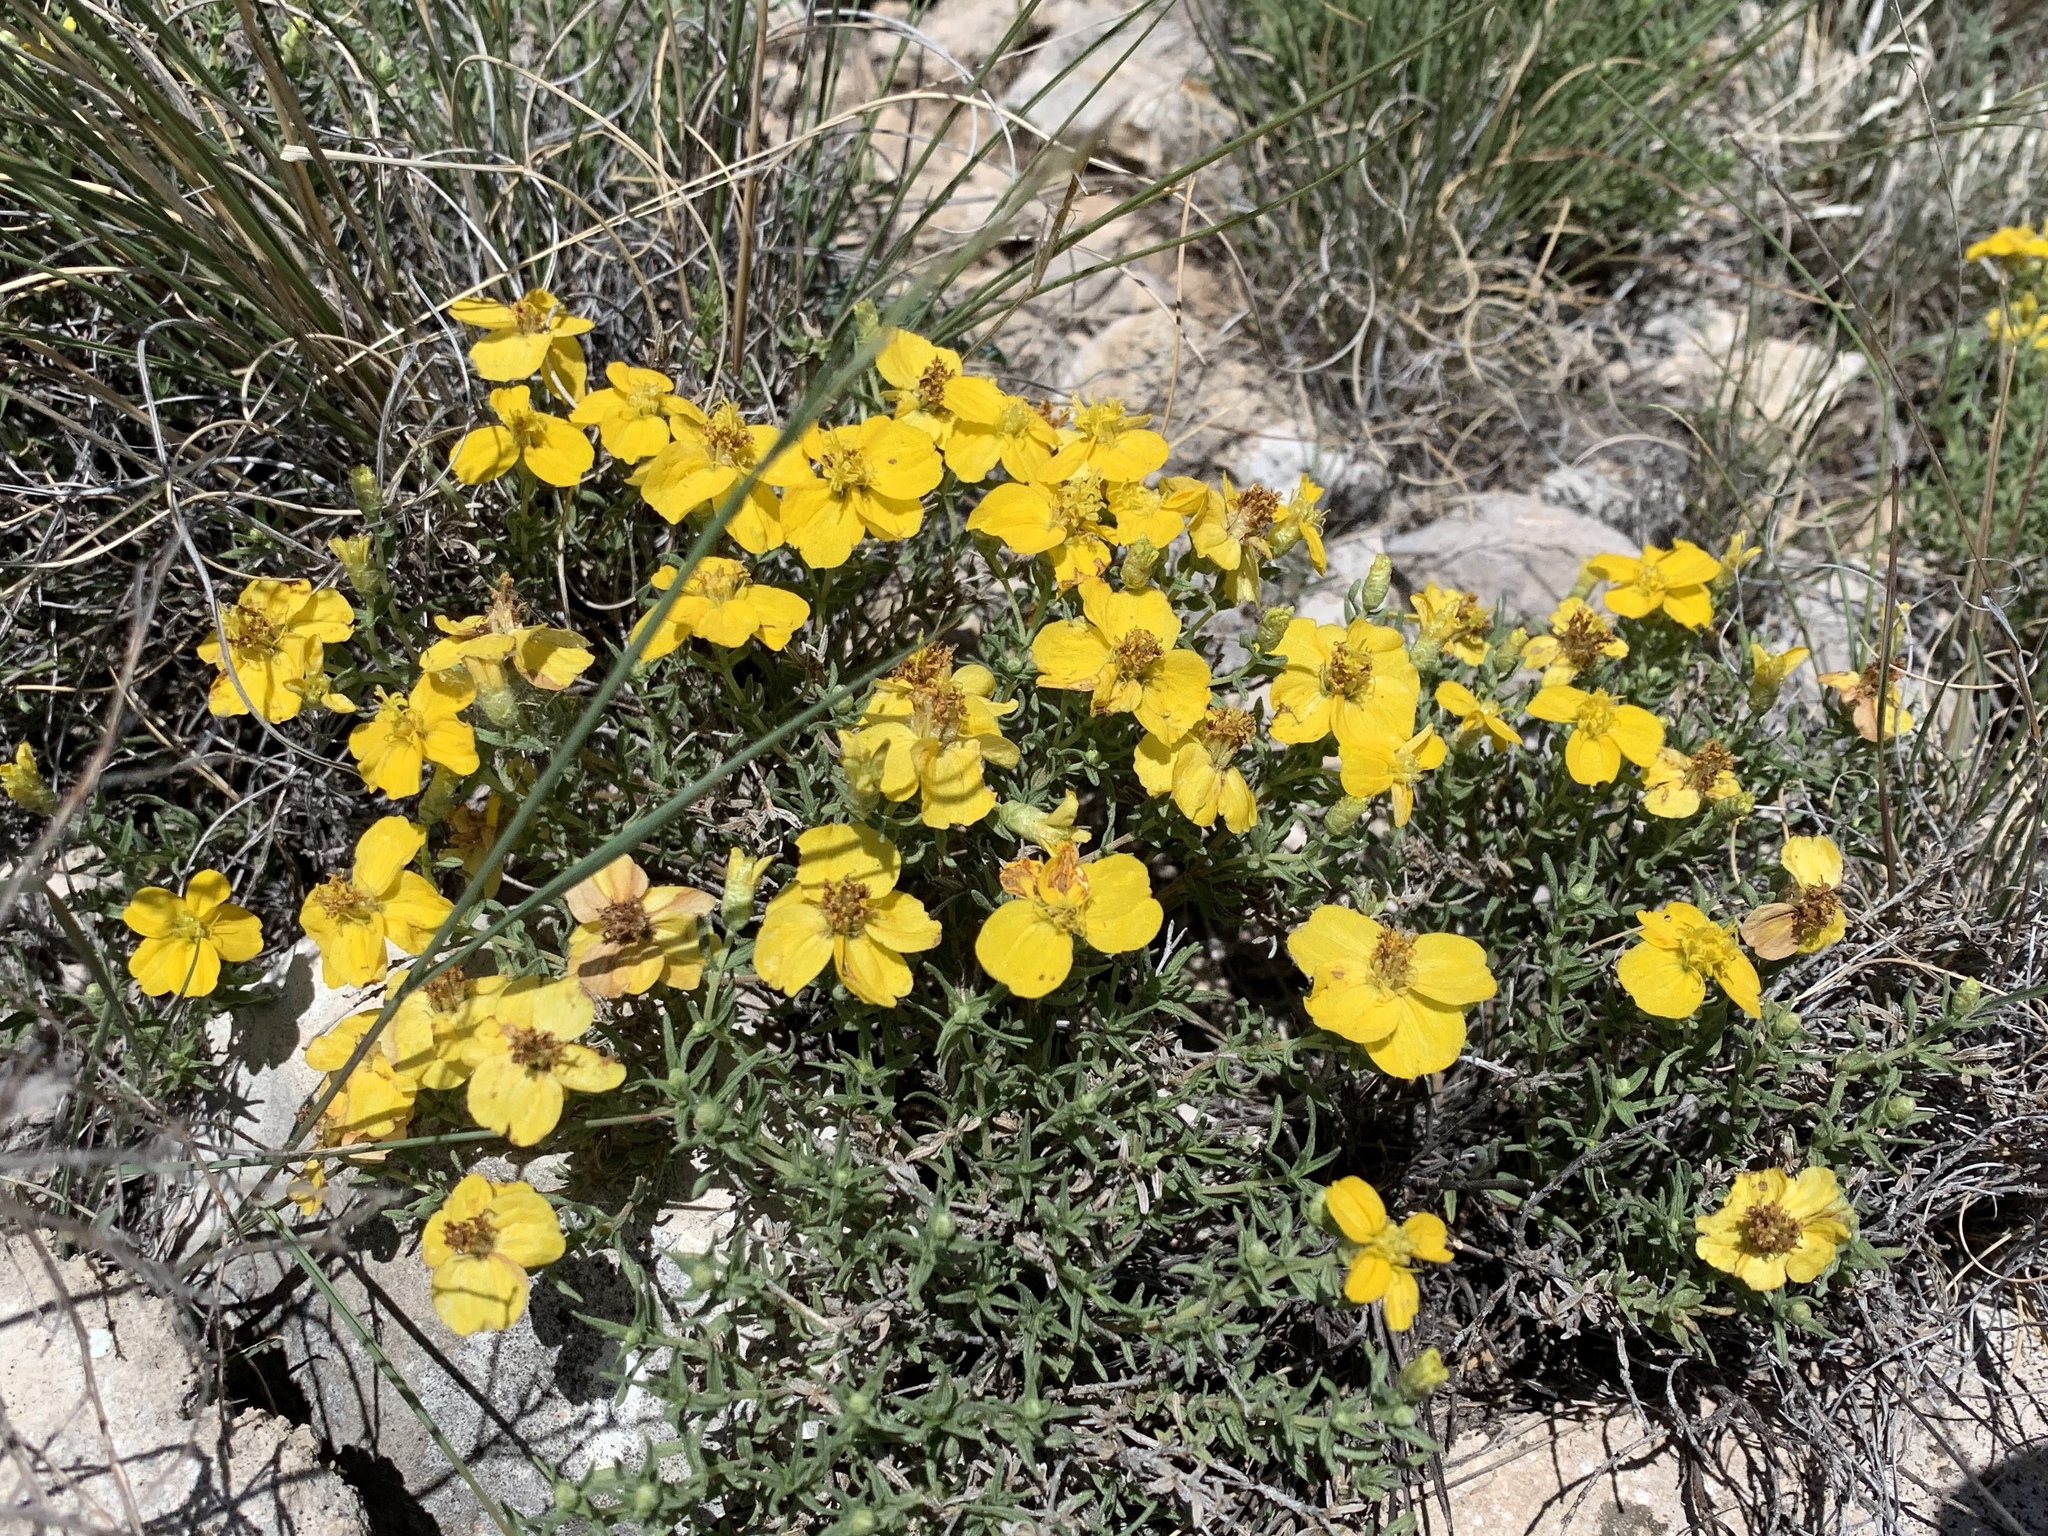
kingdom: Plantae
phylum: Tracheophyta
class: Magnoliopsida
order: Asterales
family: Asteraceae
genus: Zinnia
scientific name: Zinnia grandiflora
